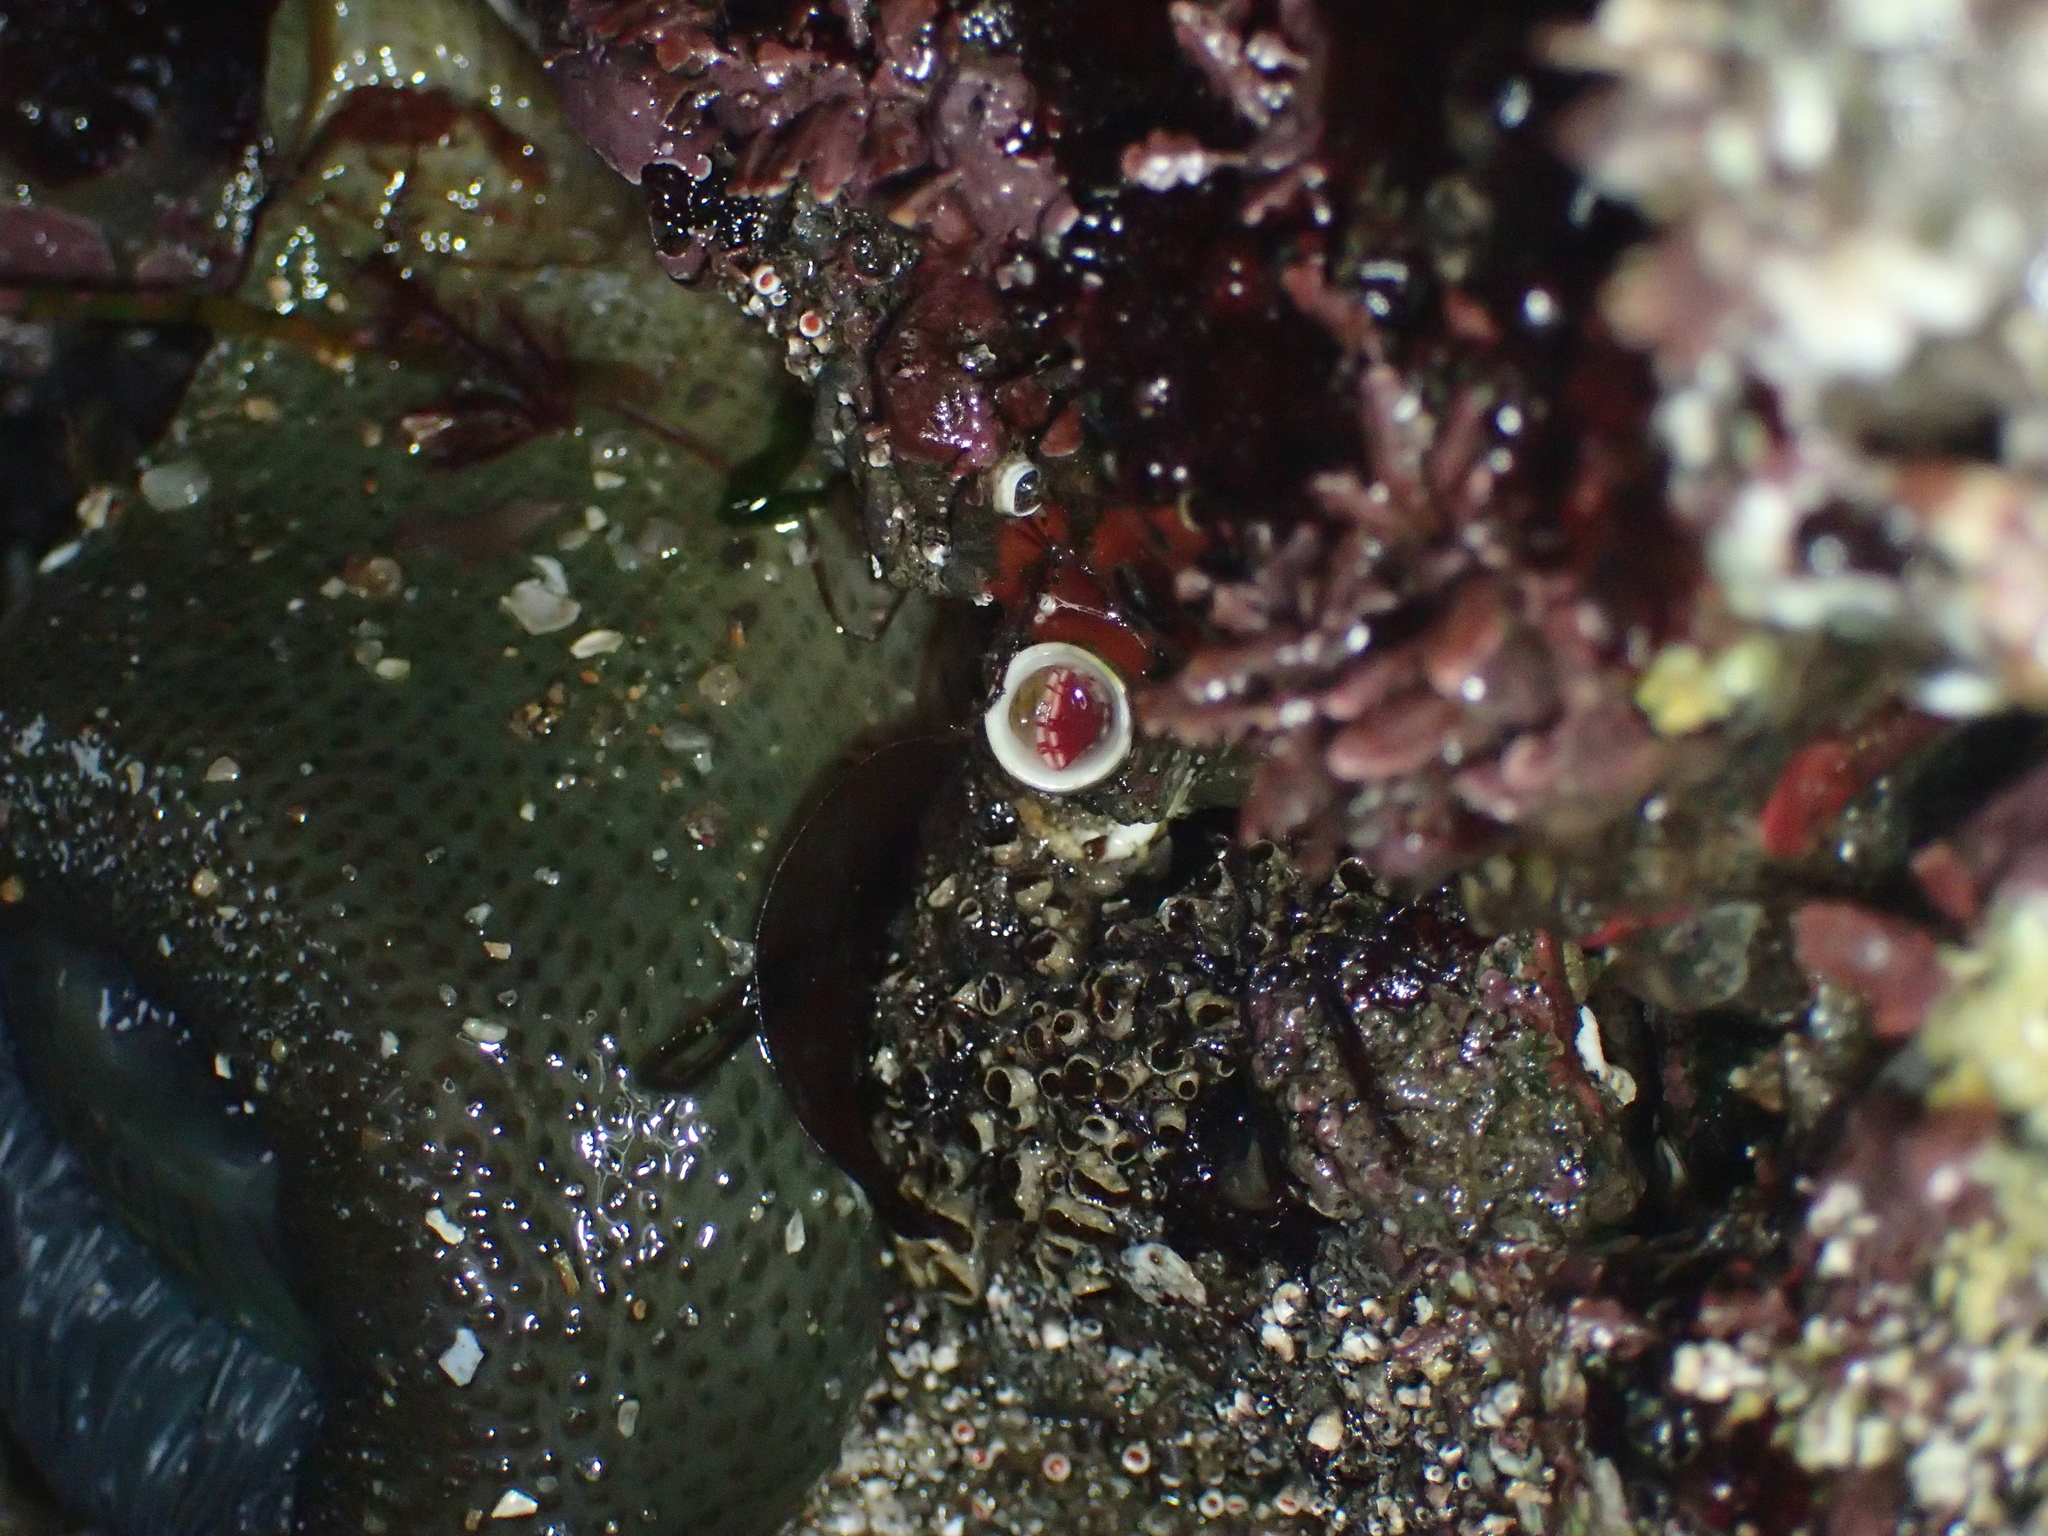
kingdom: Animalia
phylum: Annelida
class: Polychaeta
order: Sabellida
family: Serpulidae
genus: Serpula
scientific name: Serpula columbiana
